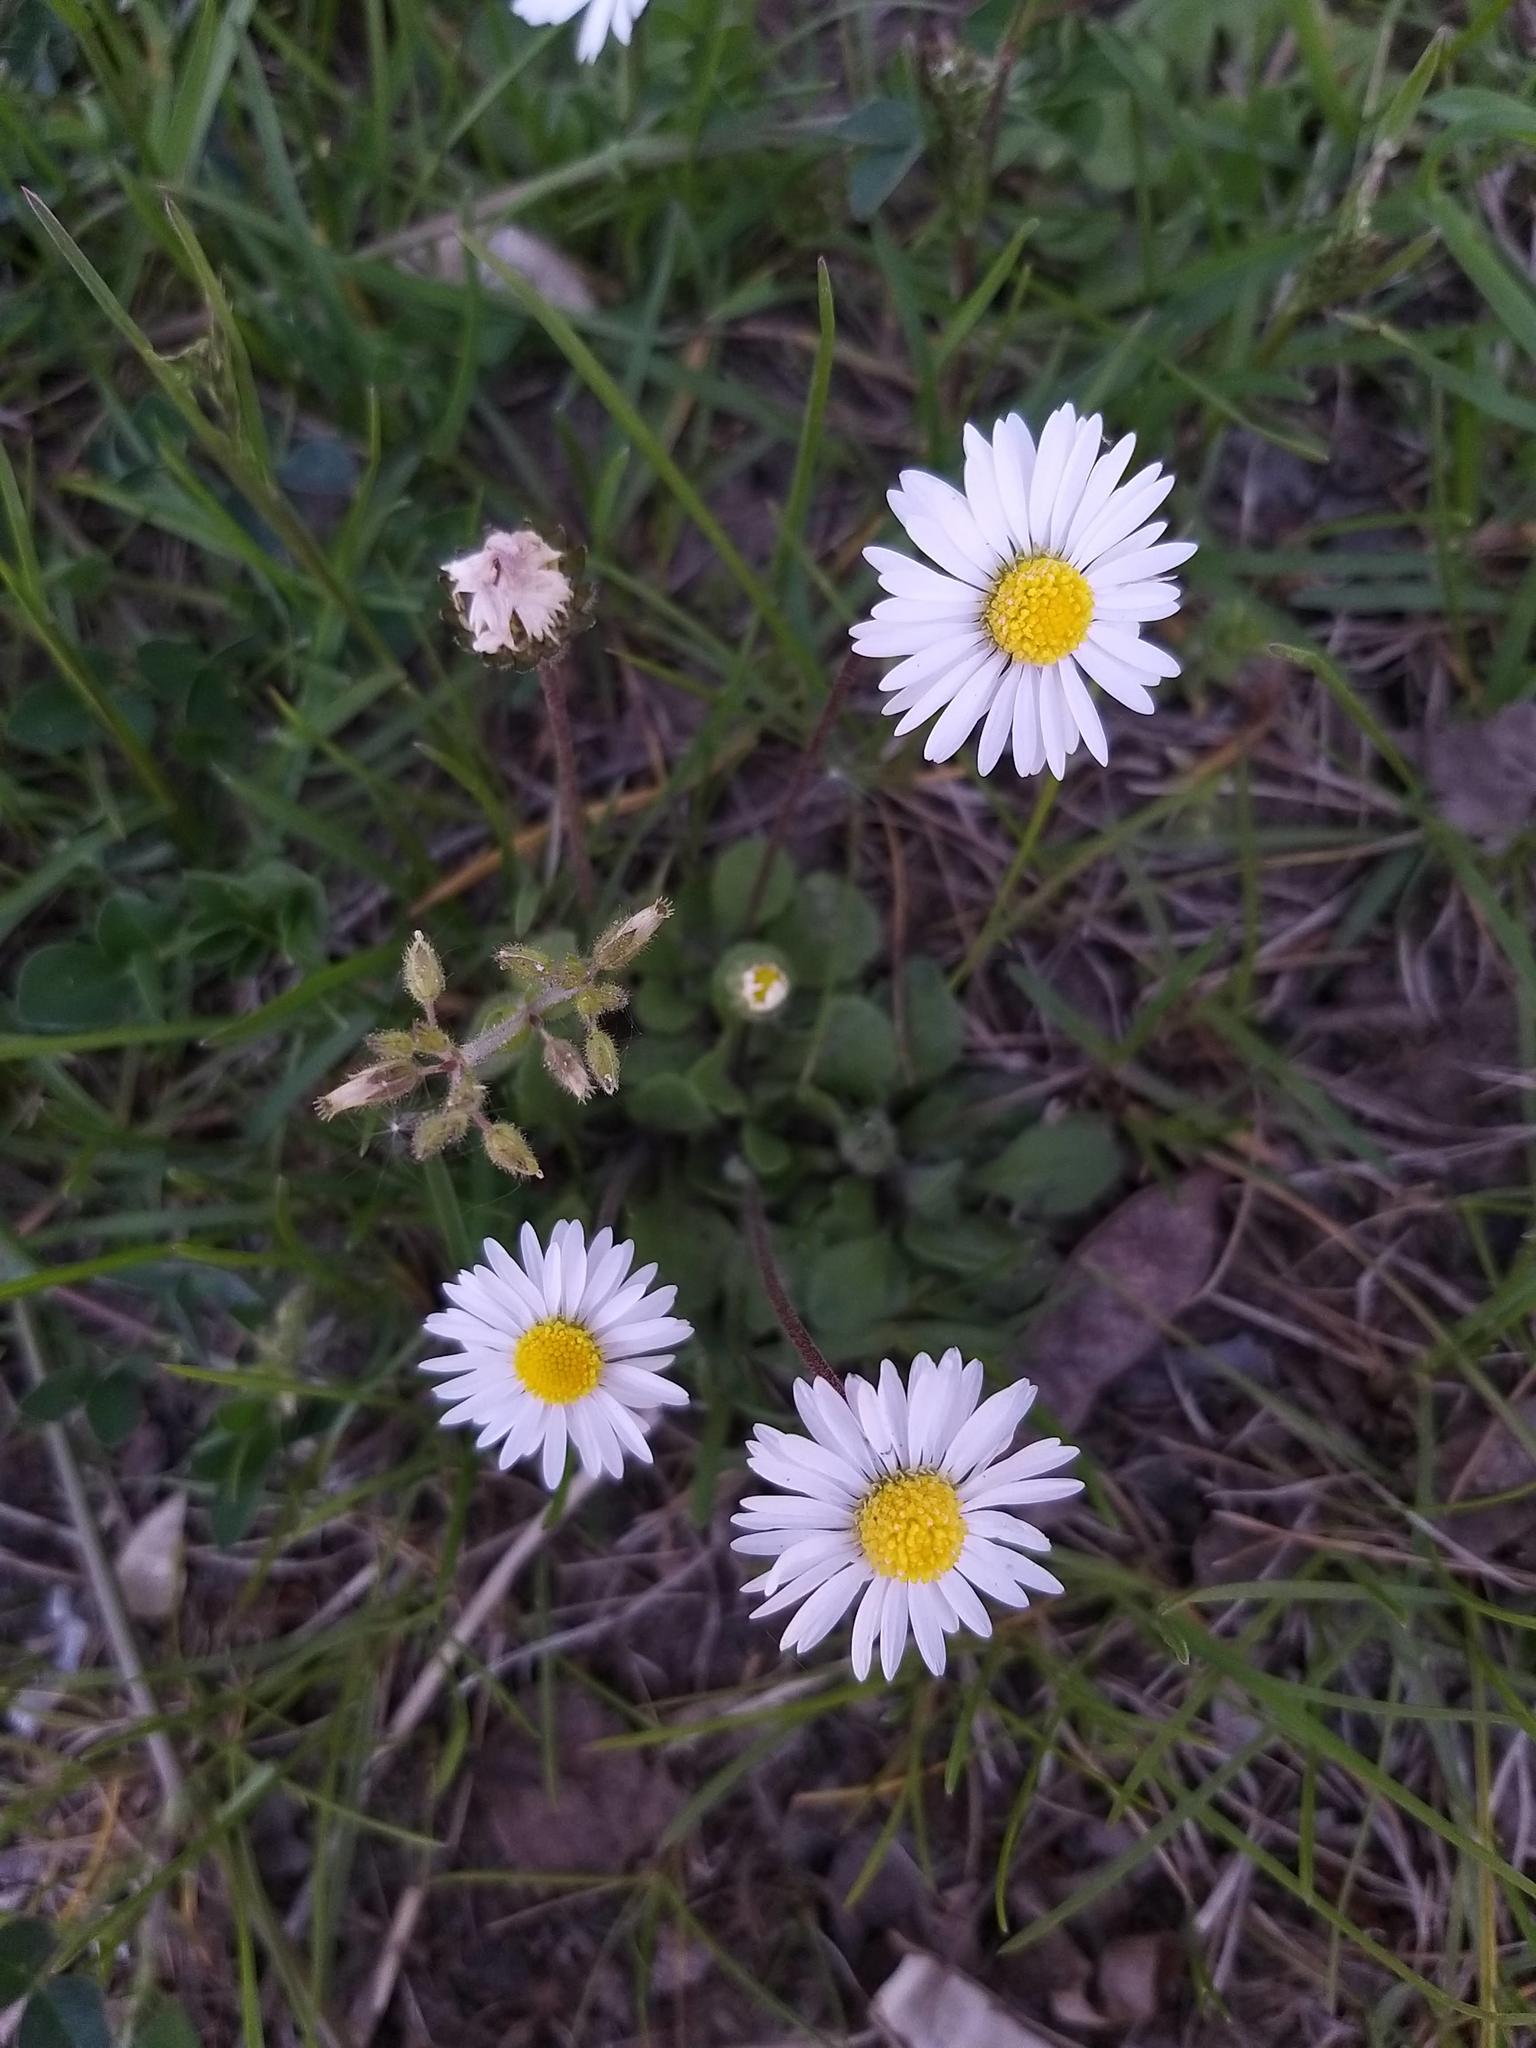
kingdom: Plantae
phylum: Tracheophyta
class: Magnoliopsida
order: Asterales
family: Asteraceae
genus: Bellis
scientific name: Bellis perennis
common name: Lawndaisy
